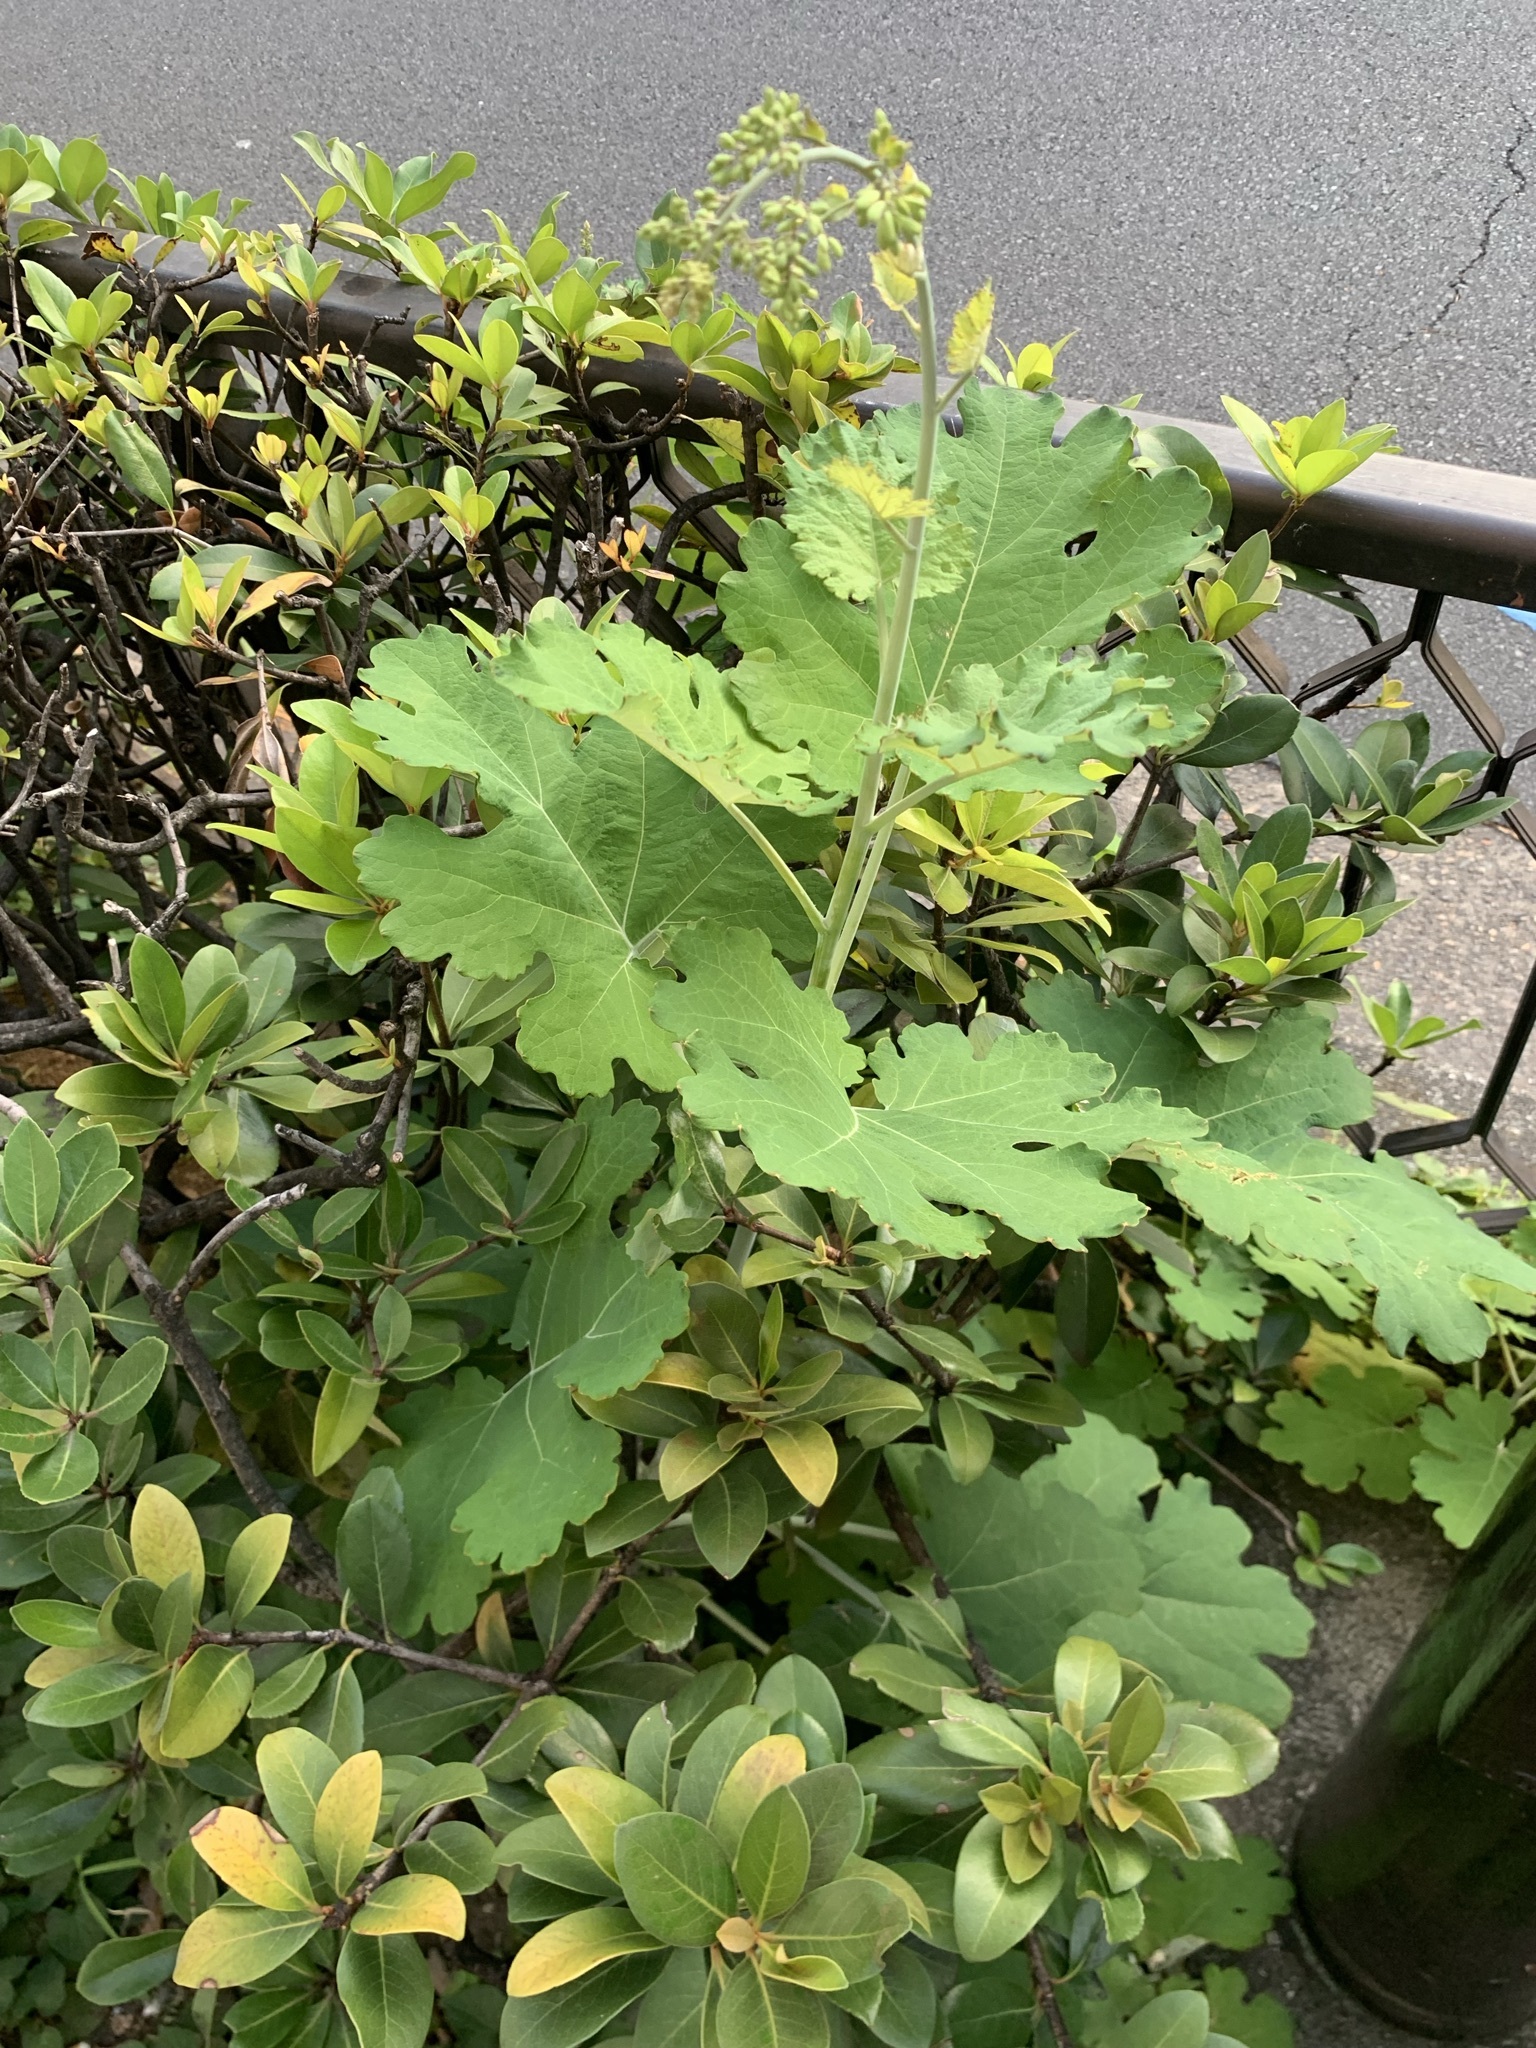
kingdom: Plantae
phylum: Tracheophyta
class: Magnoliopsida
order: Ranunculales
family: Papaveraceae
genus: Macleaya
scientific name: Macleaya cordata
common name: Plume poppy
